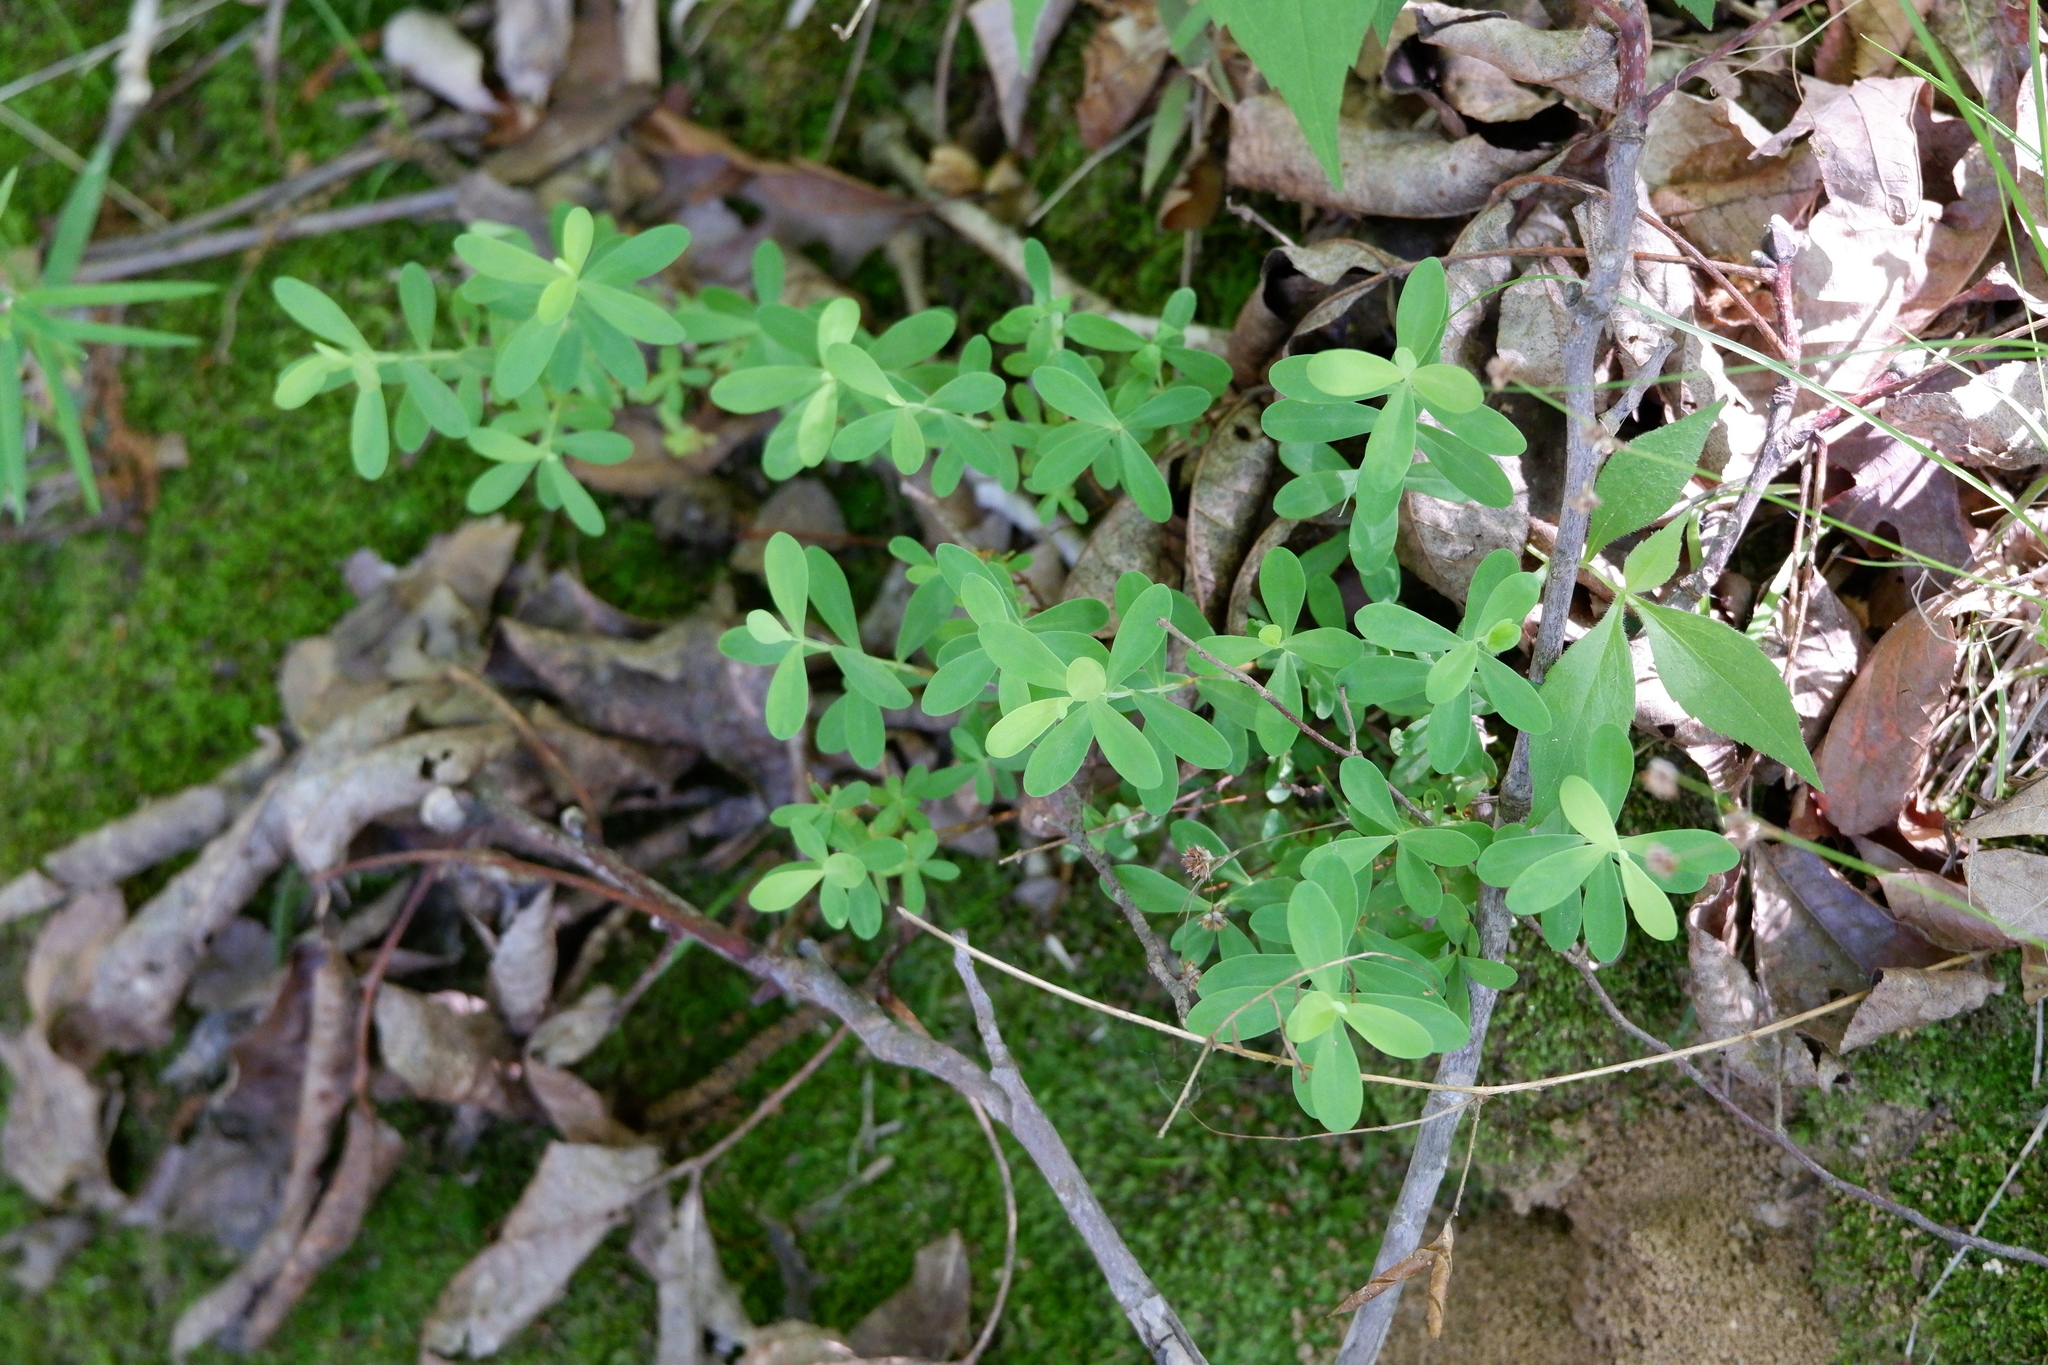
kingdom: Plantae
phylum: Tracheophyta
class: Magnoliopsida
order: Malpighiales
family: Hypericaceae
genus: Hypericum
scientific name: Hypericum hypericoides
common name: St. andrew's cross
